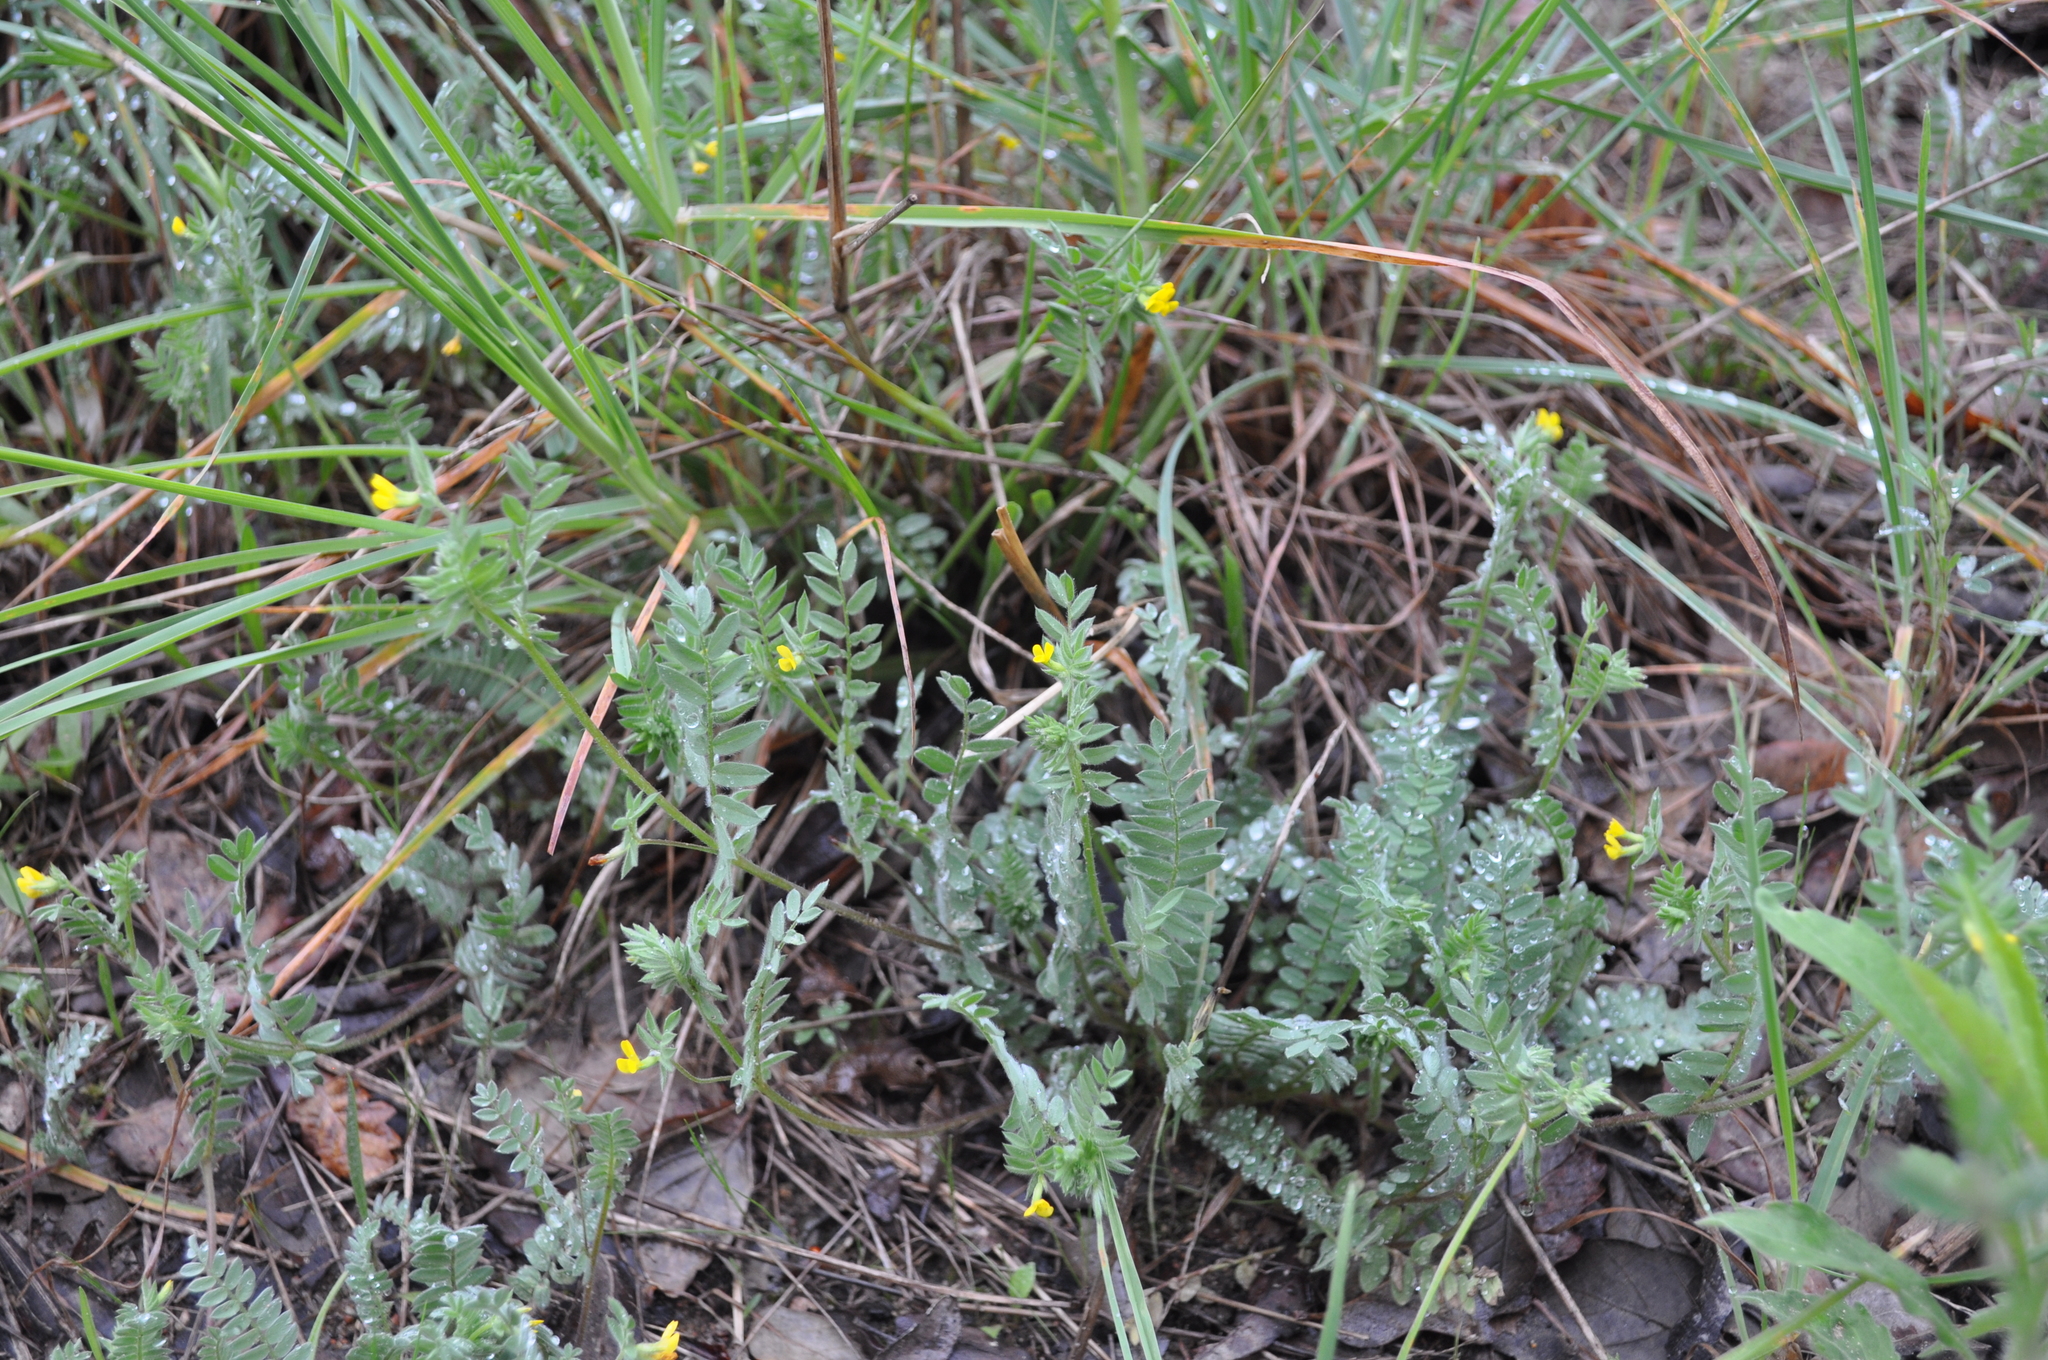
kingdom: Plantae
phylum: Tracheophyta
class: Magnoliopsida
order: Fabales
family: Fabaceae
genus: Ornithopus
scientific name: Ornithopus compressus
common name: Yellow serradella
